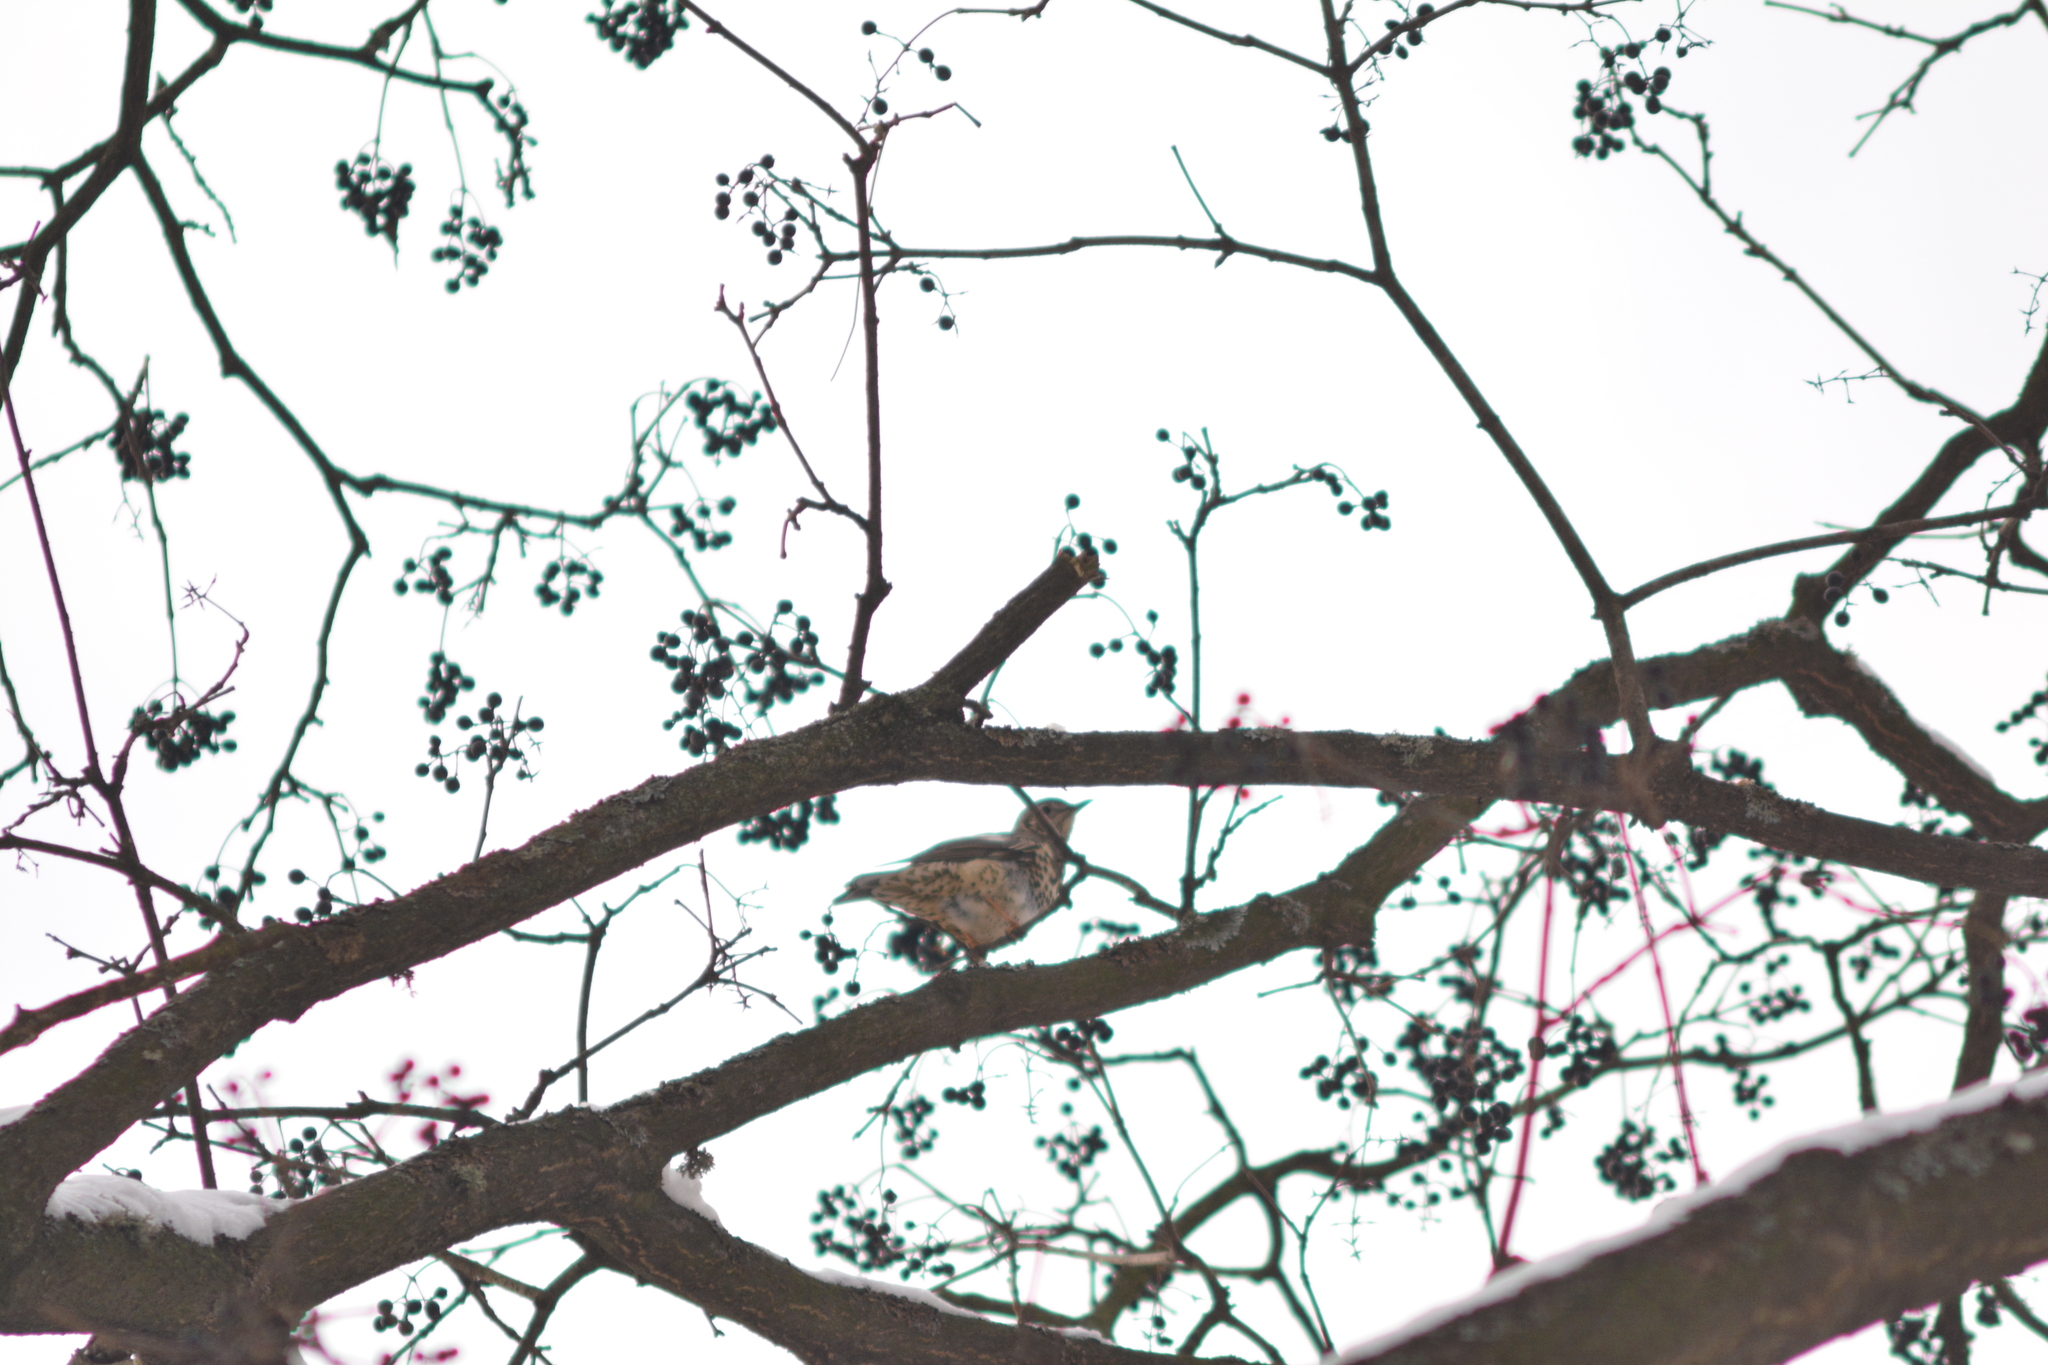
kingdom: Animalia
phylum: Chordata
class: Aves
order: Passeriformes
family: Turdidae
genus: Turdus
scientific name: Turdus viscivorus
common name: Mistle thrush
